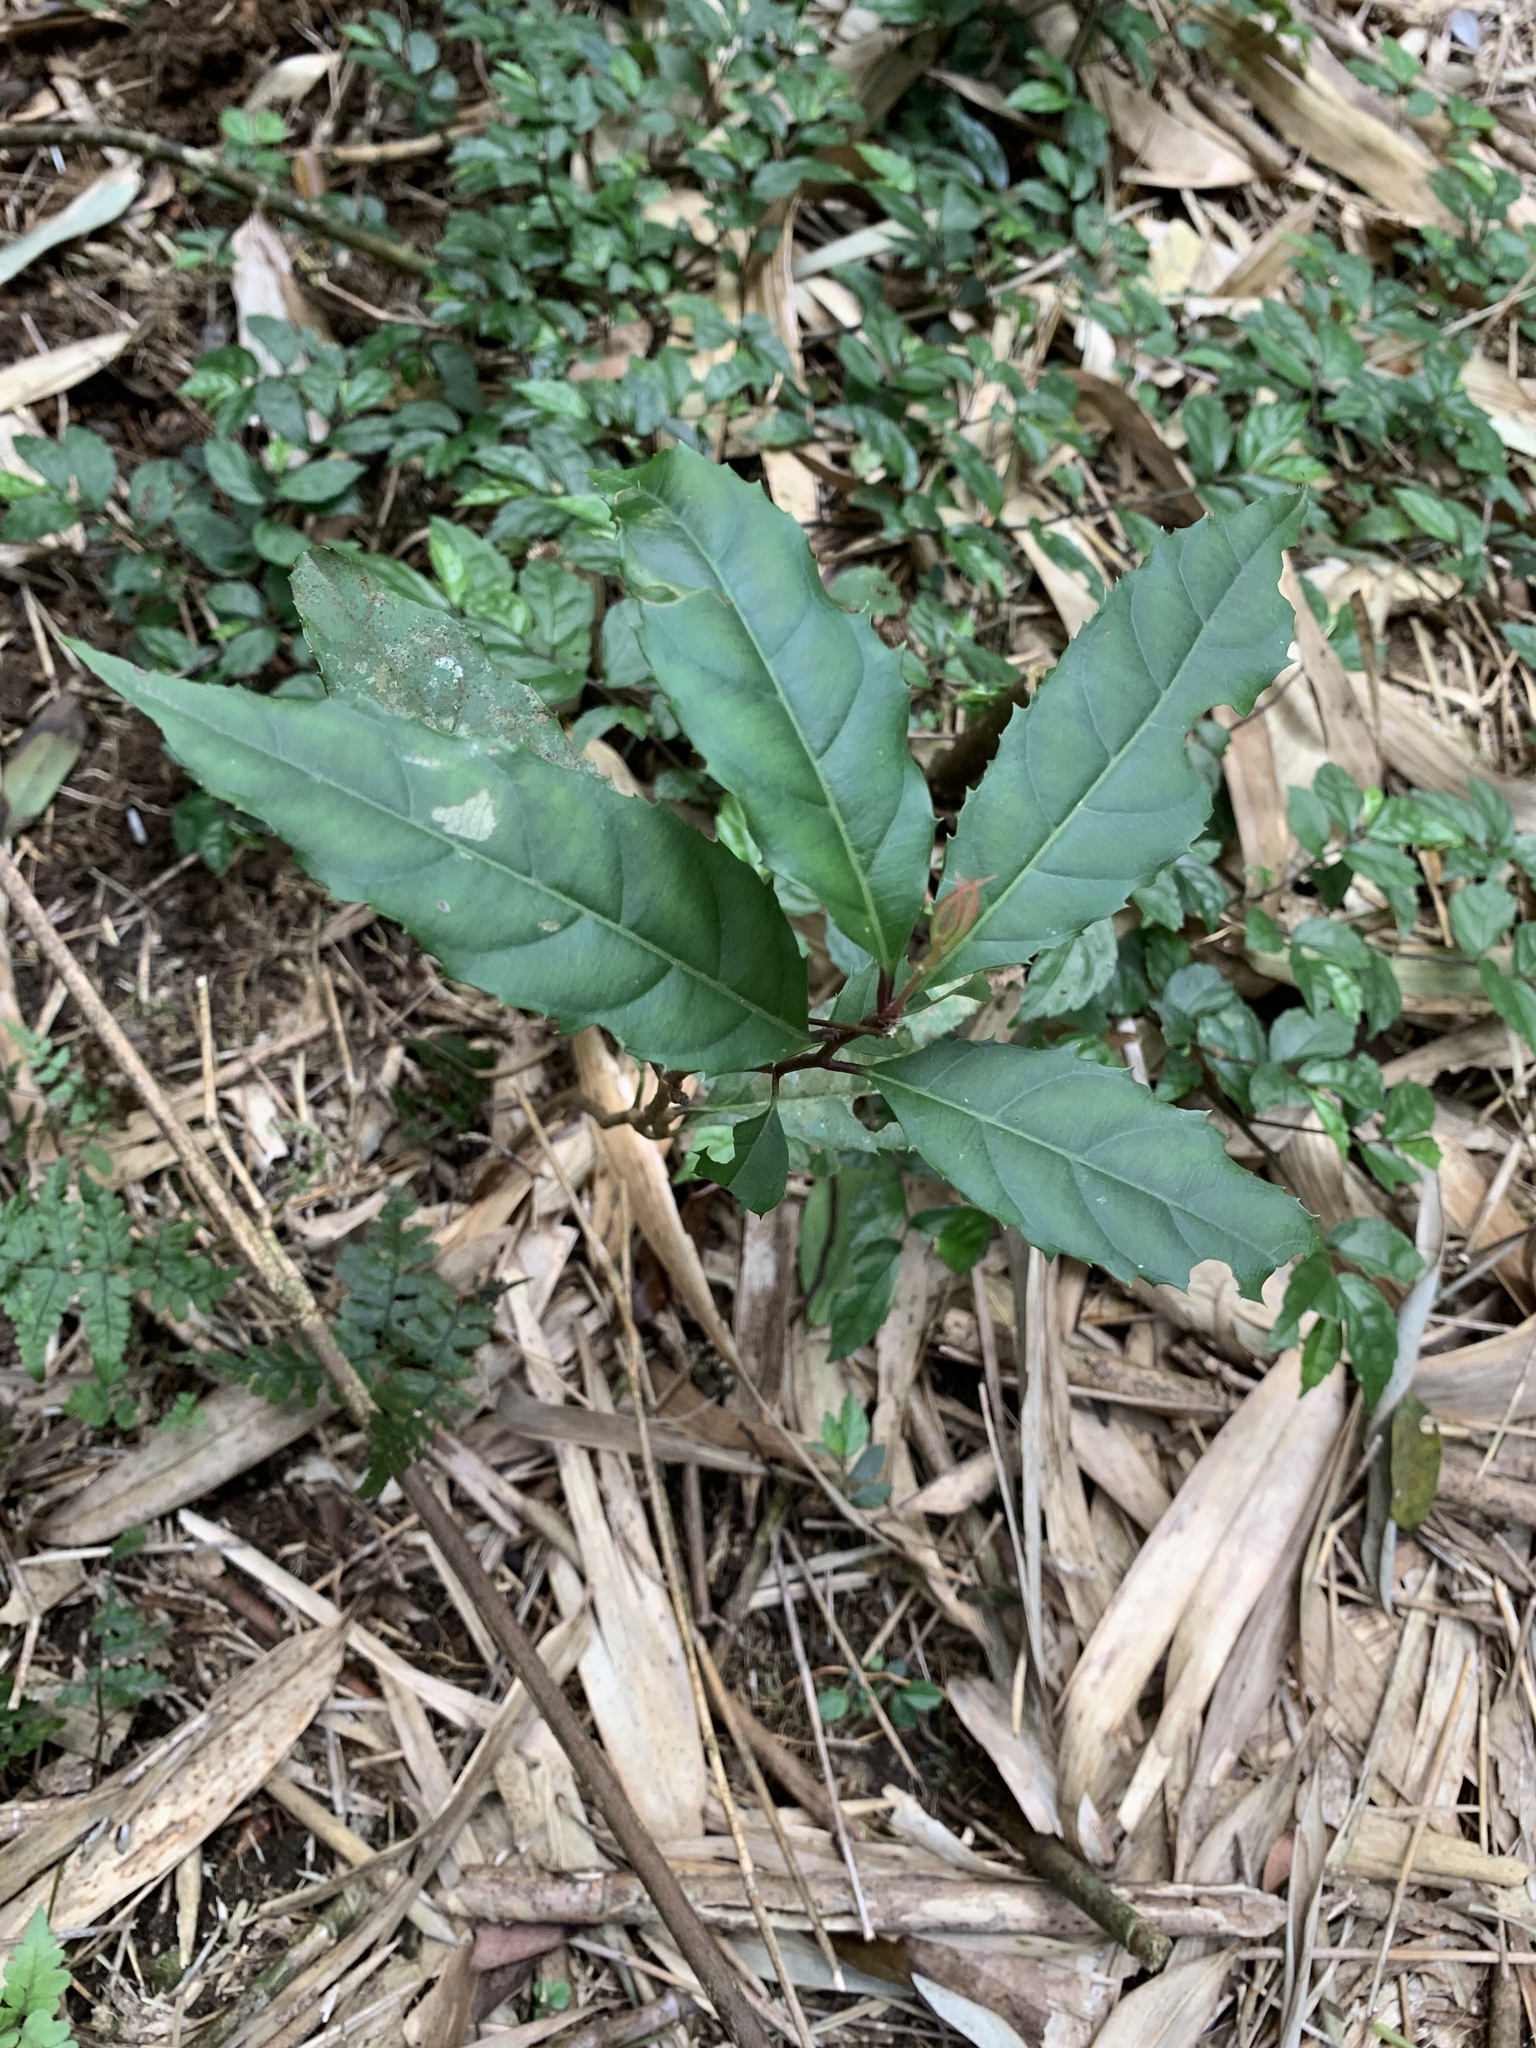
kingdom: Plantae
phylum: Tracheophyta
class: Magnoliopsida
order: Saxifragales
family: Iteaceae
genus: Itea
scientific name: Itea parviflora
